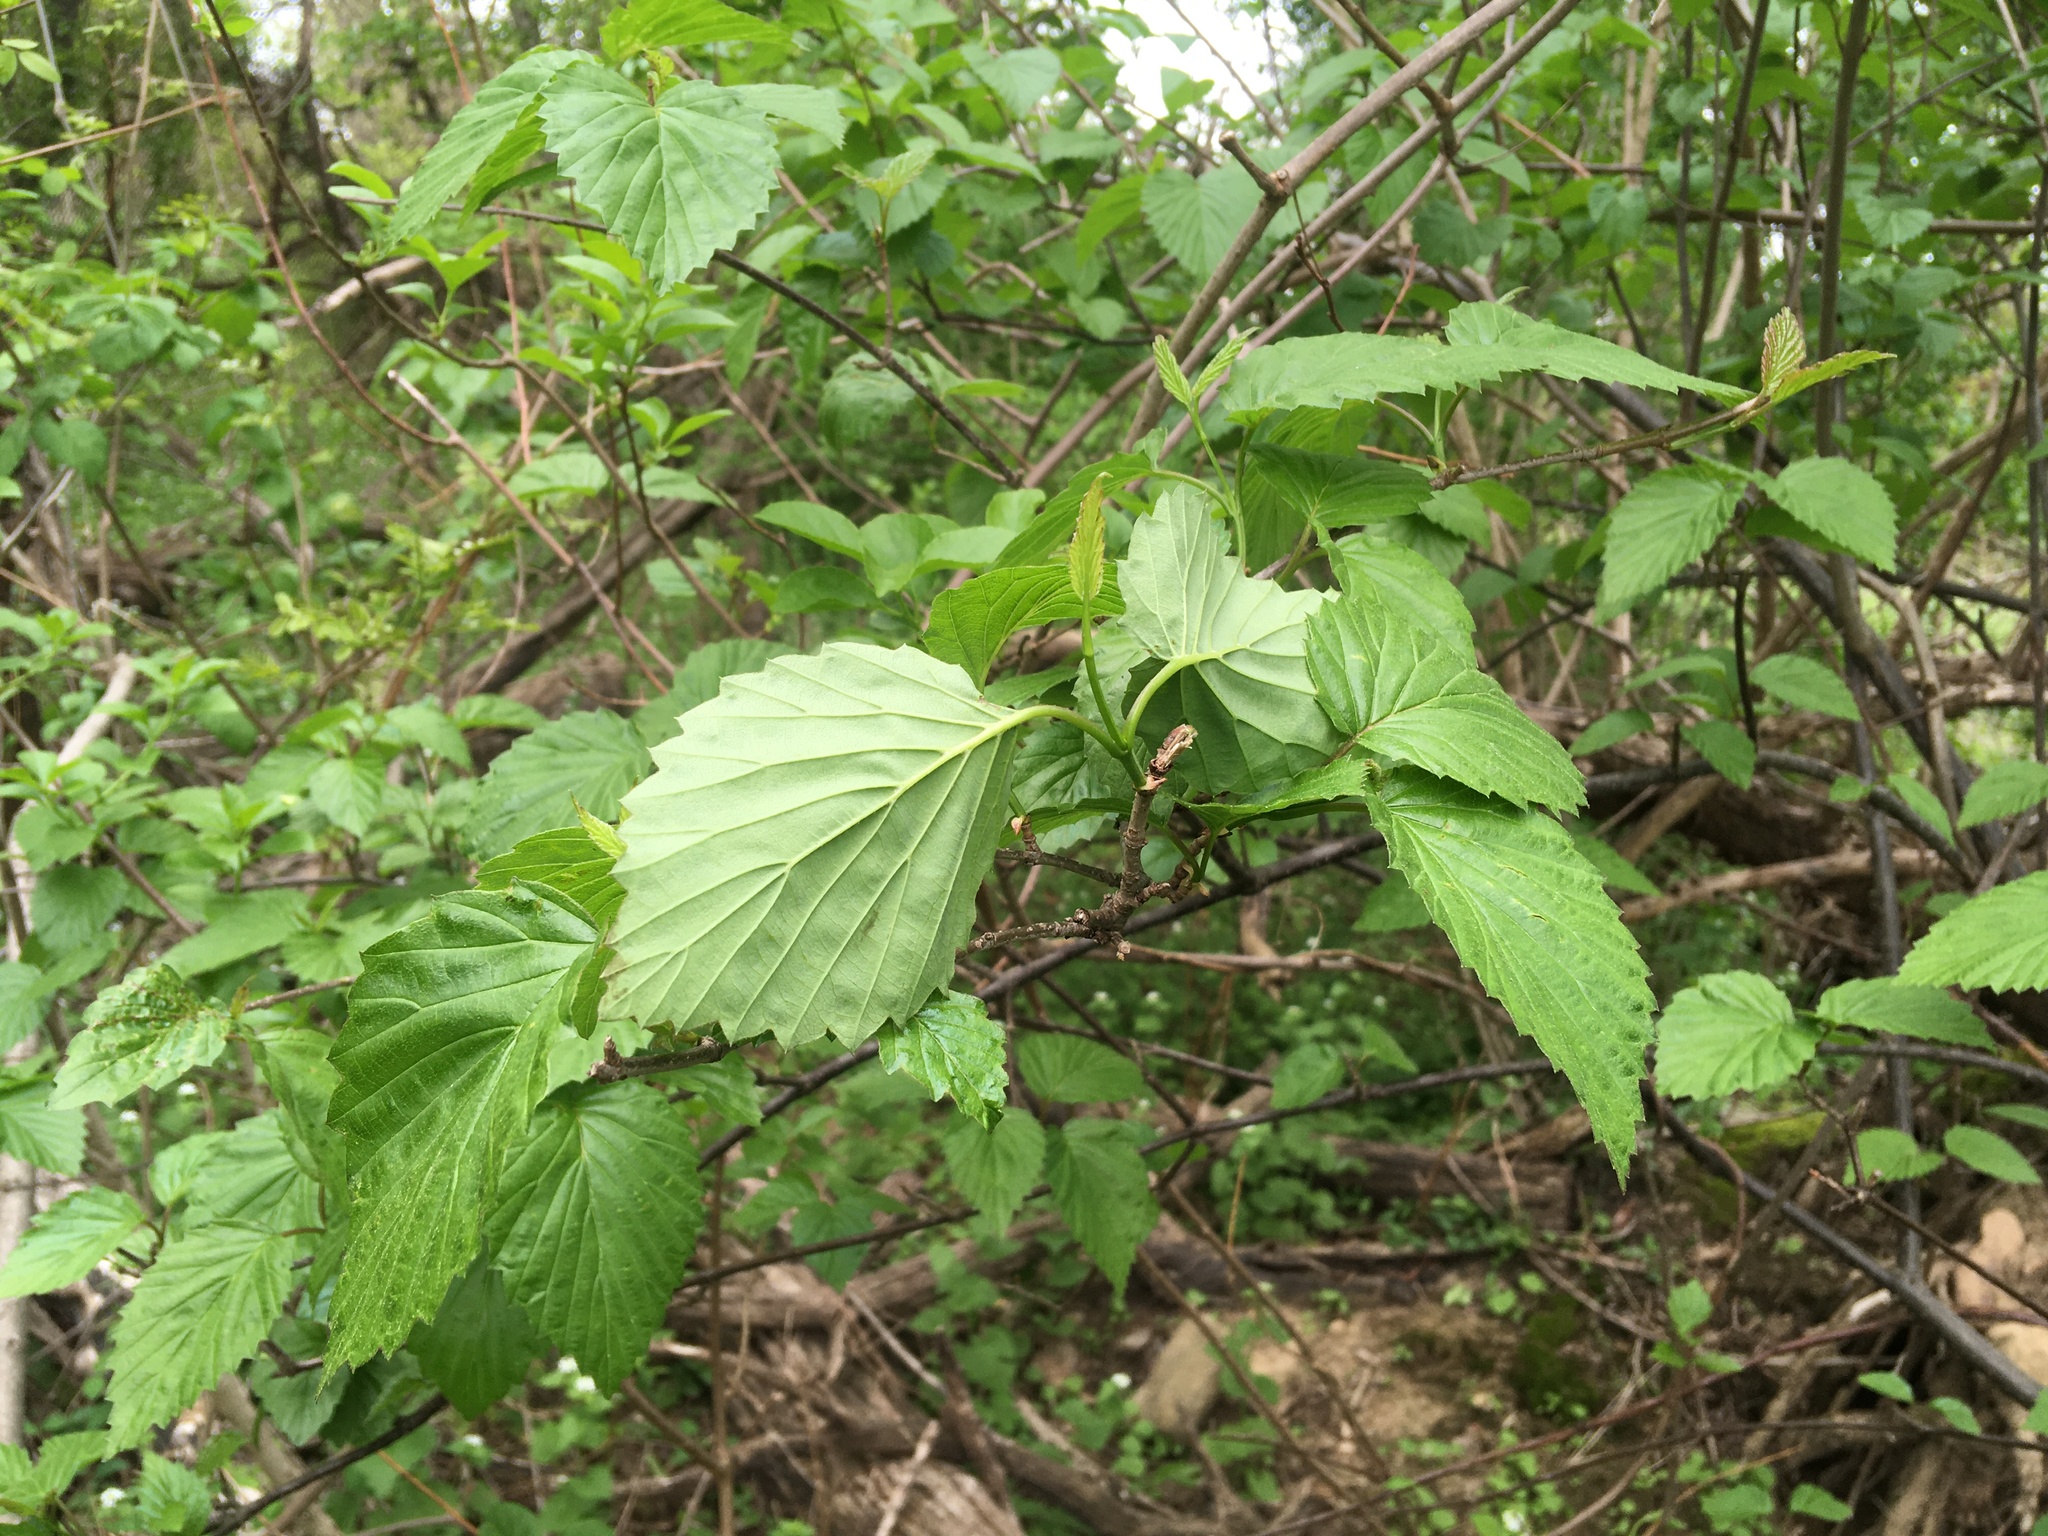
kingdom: Plantae
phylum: Tracheophyta
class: Magnoliopsida
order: Dipsacales
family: Viburnaceae
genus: Viburnum
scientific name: Viburnum recognitum
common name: Northern arrow-wood
